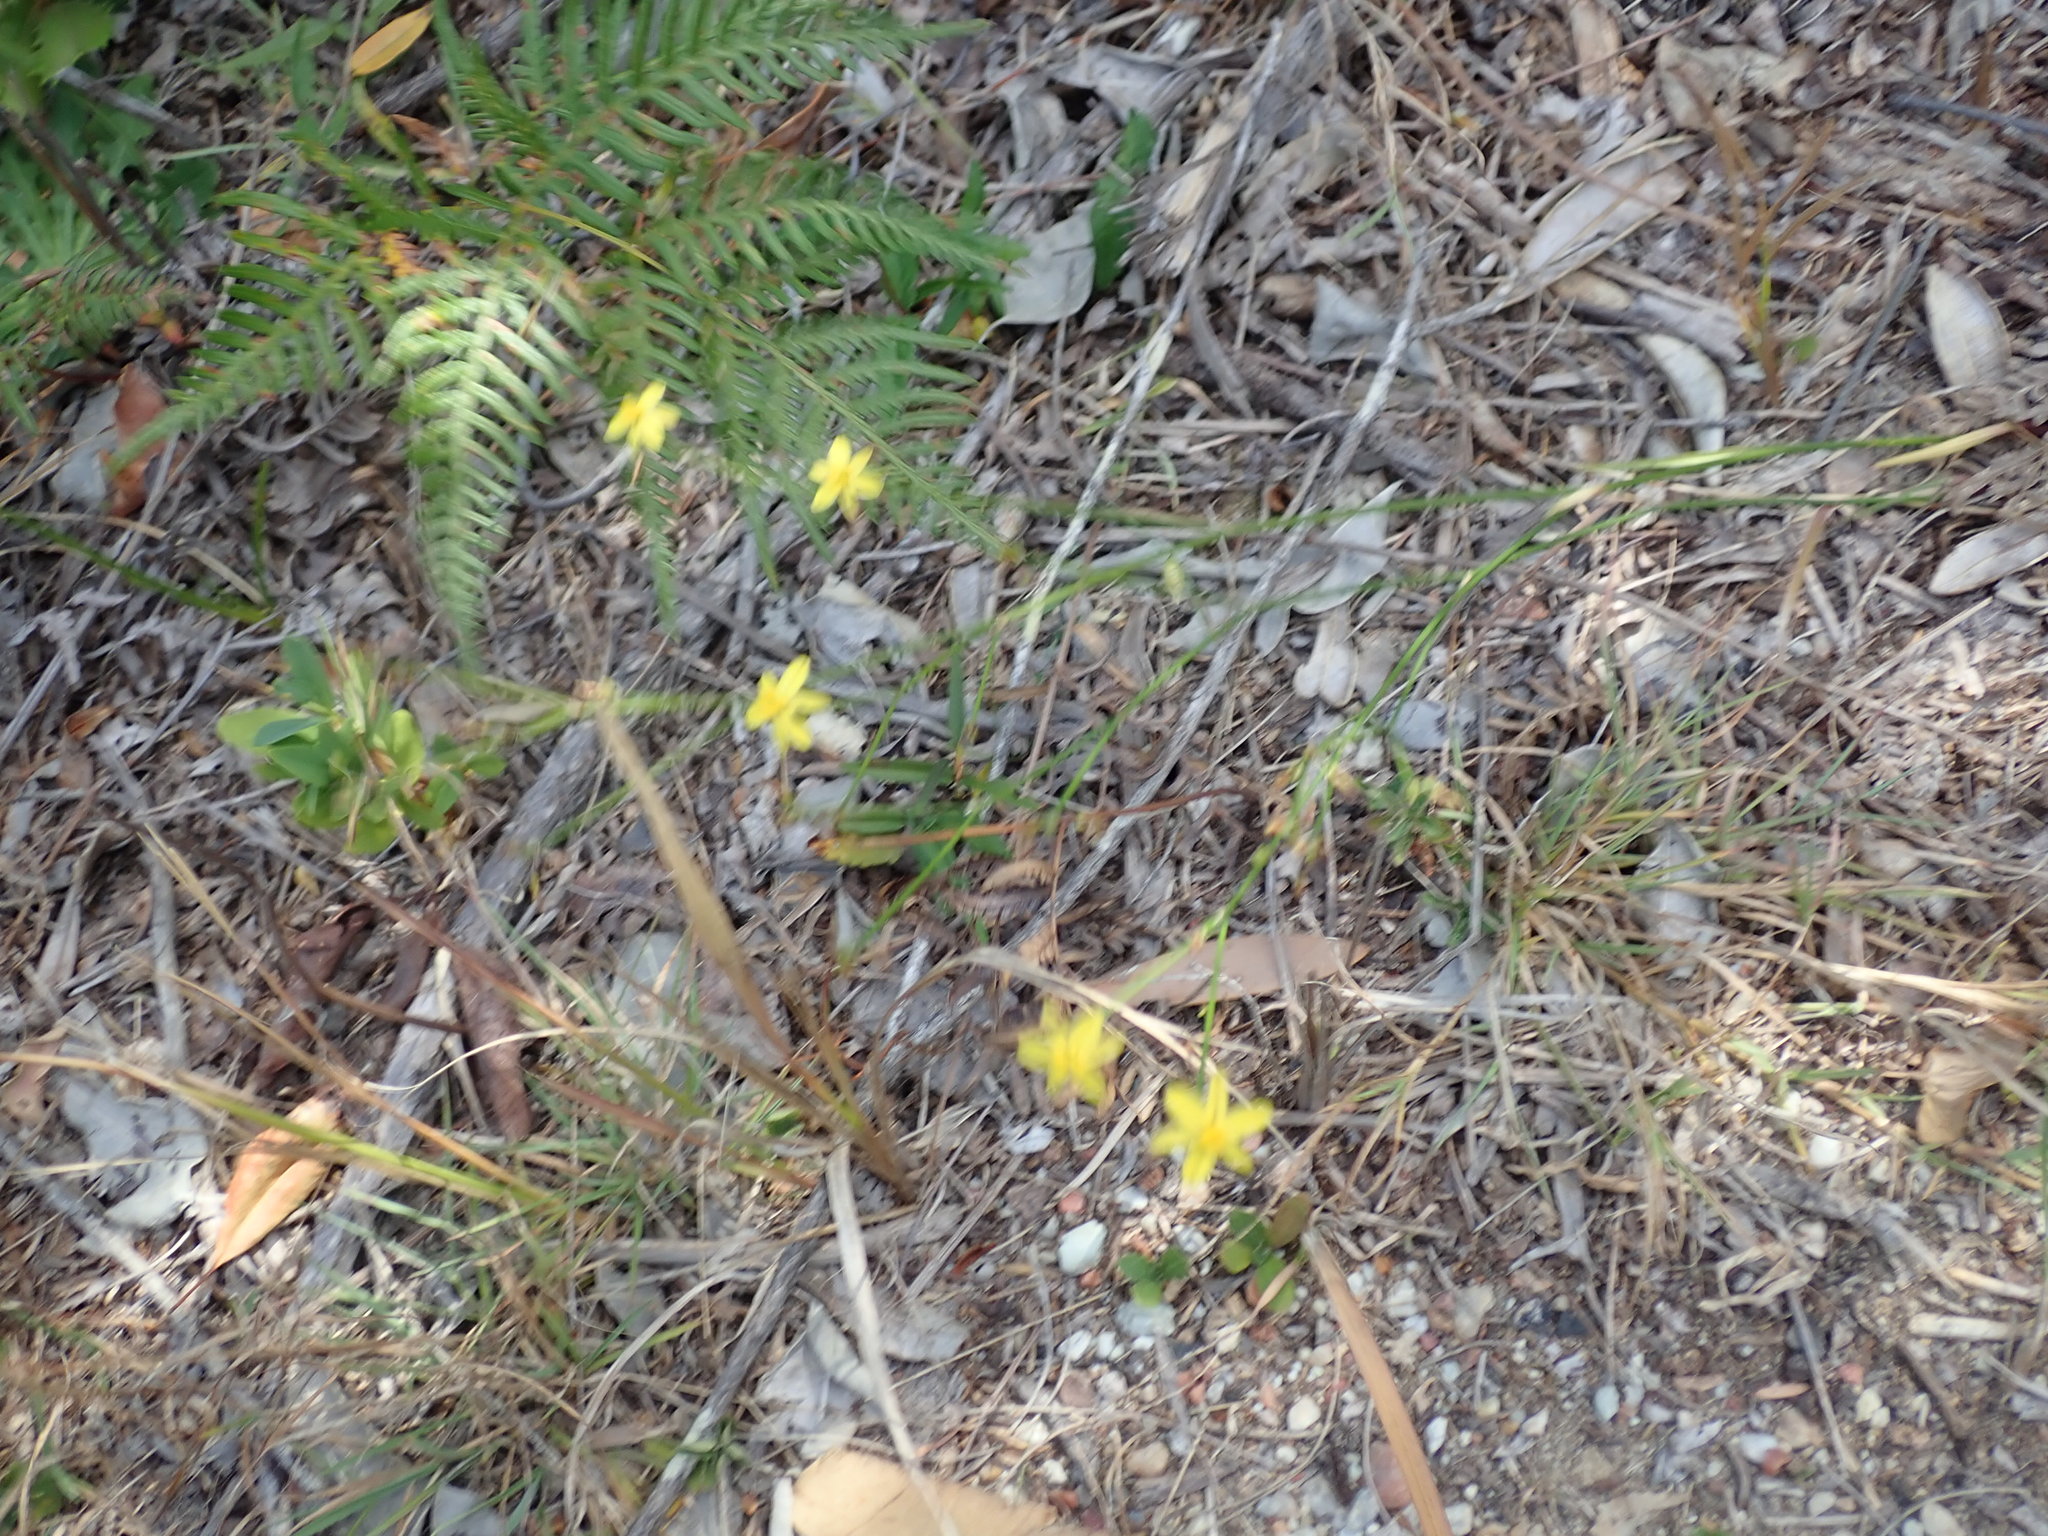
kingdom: Plantae
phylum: Tracheophyta
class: Liliopsida
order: Asparagales
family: Asphodelaceae
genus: Tricoryne
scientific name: Tricoryne elatior
